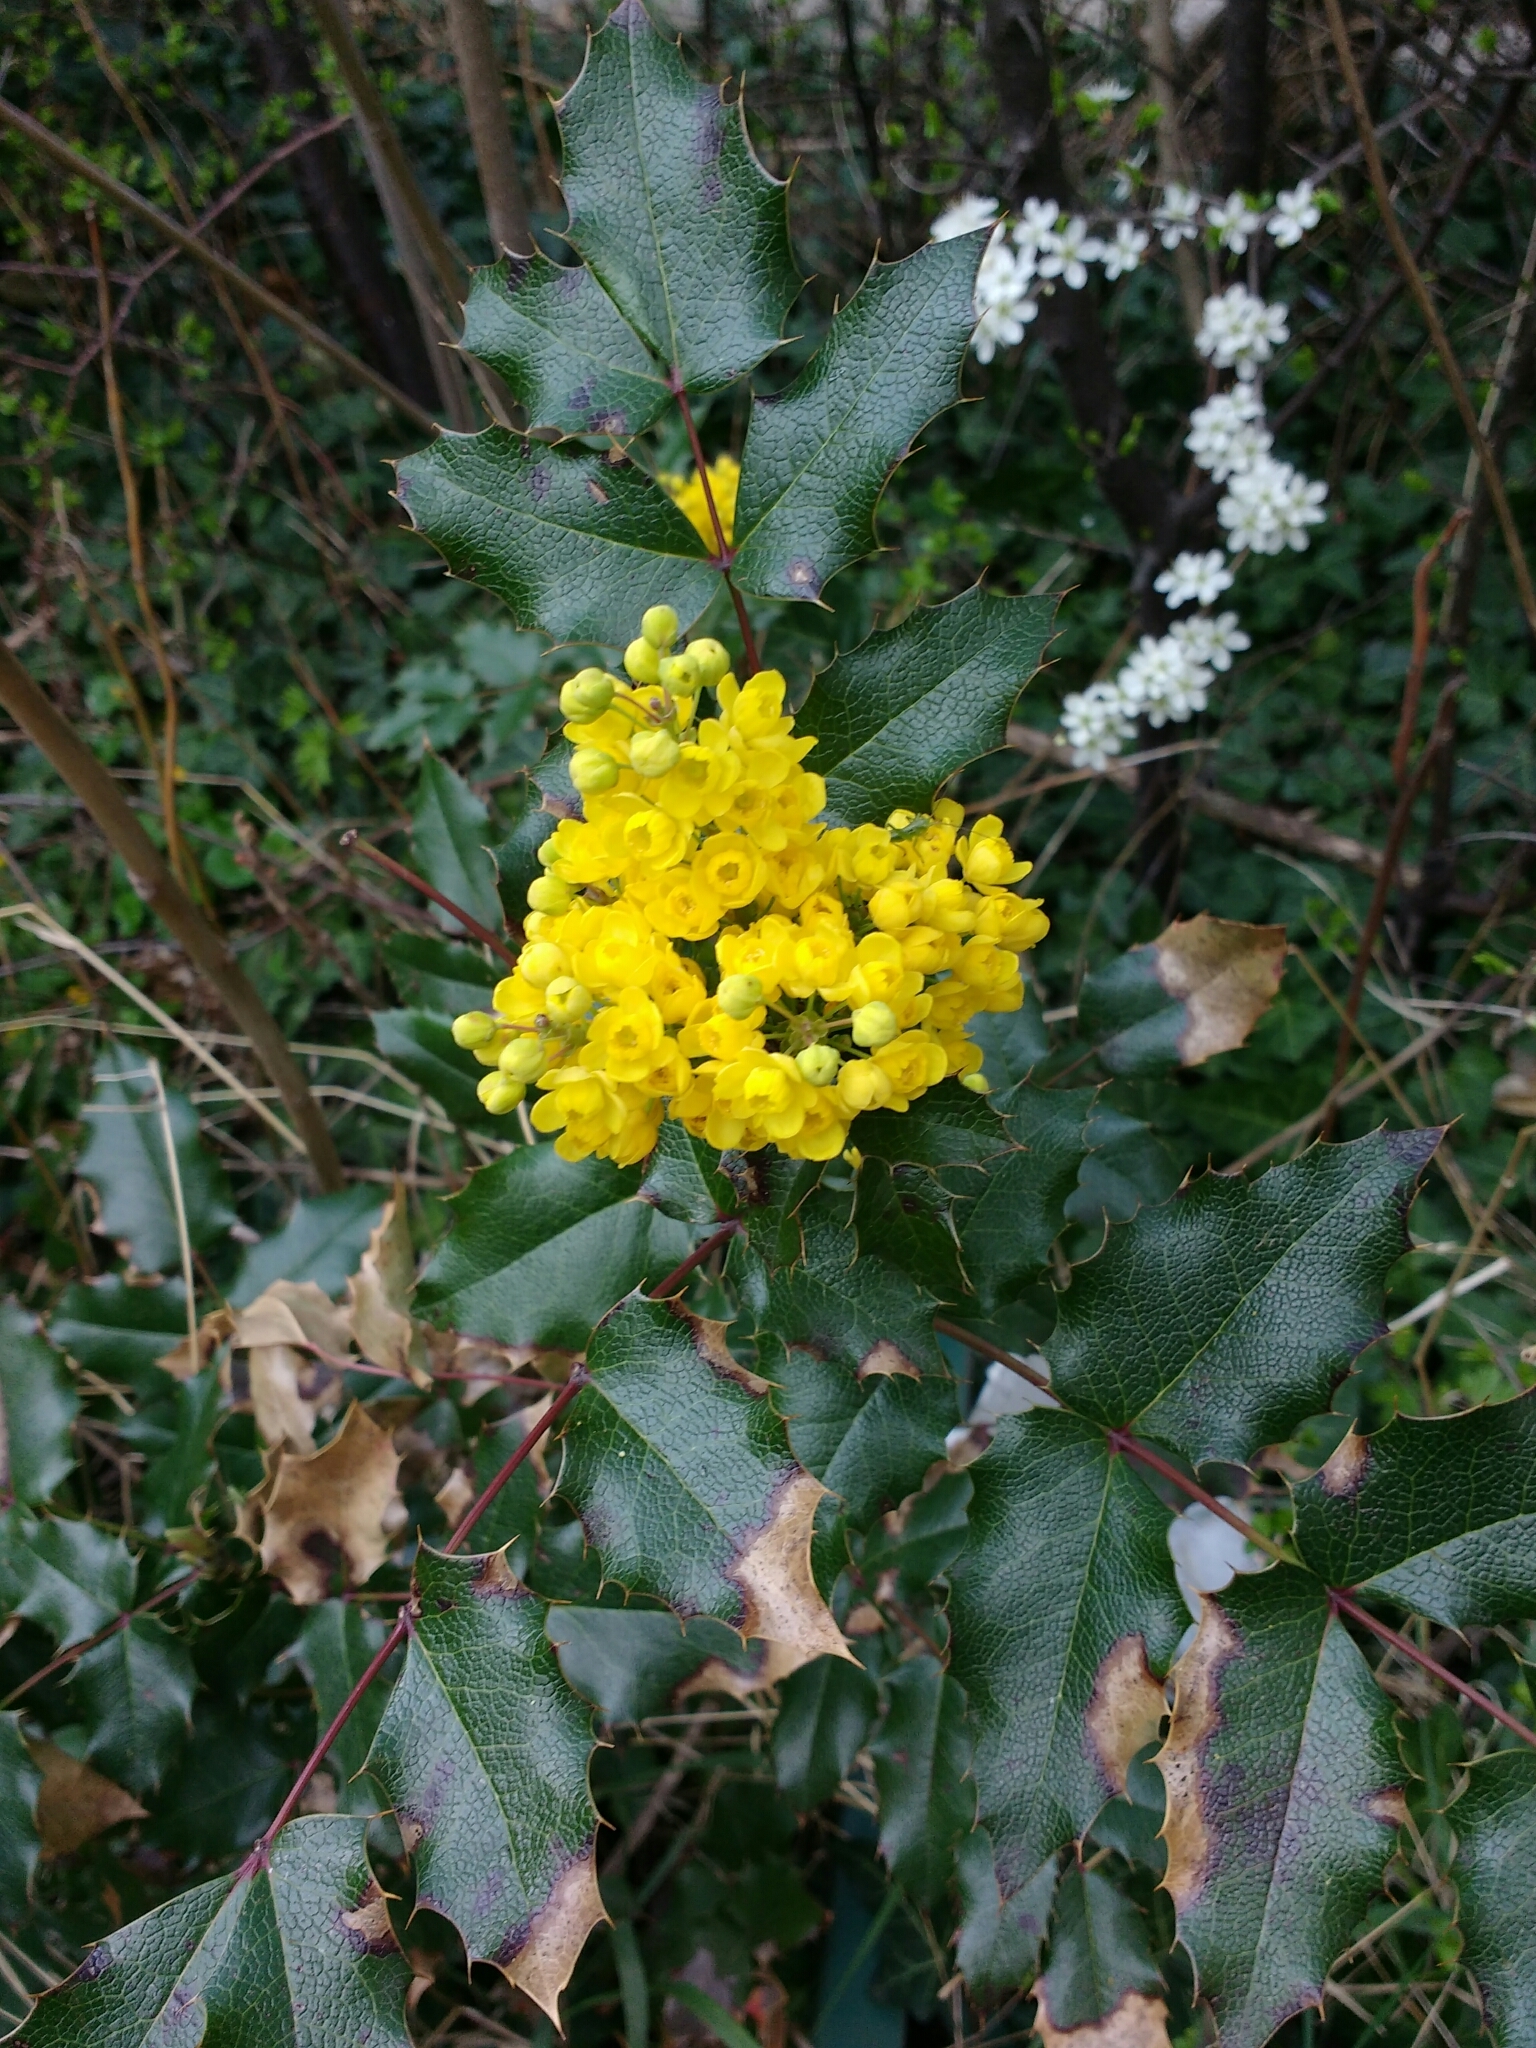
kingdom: Plantae
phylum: Tracheophyta
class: Magnoliopsida
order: Ranunculales
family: Berberidaceae
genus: Mahonia
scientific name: Mahonia aquifolium
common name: Oregon-grape
